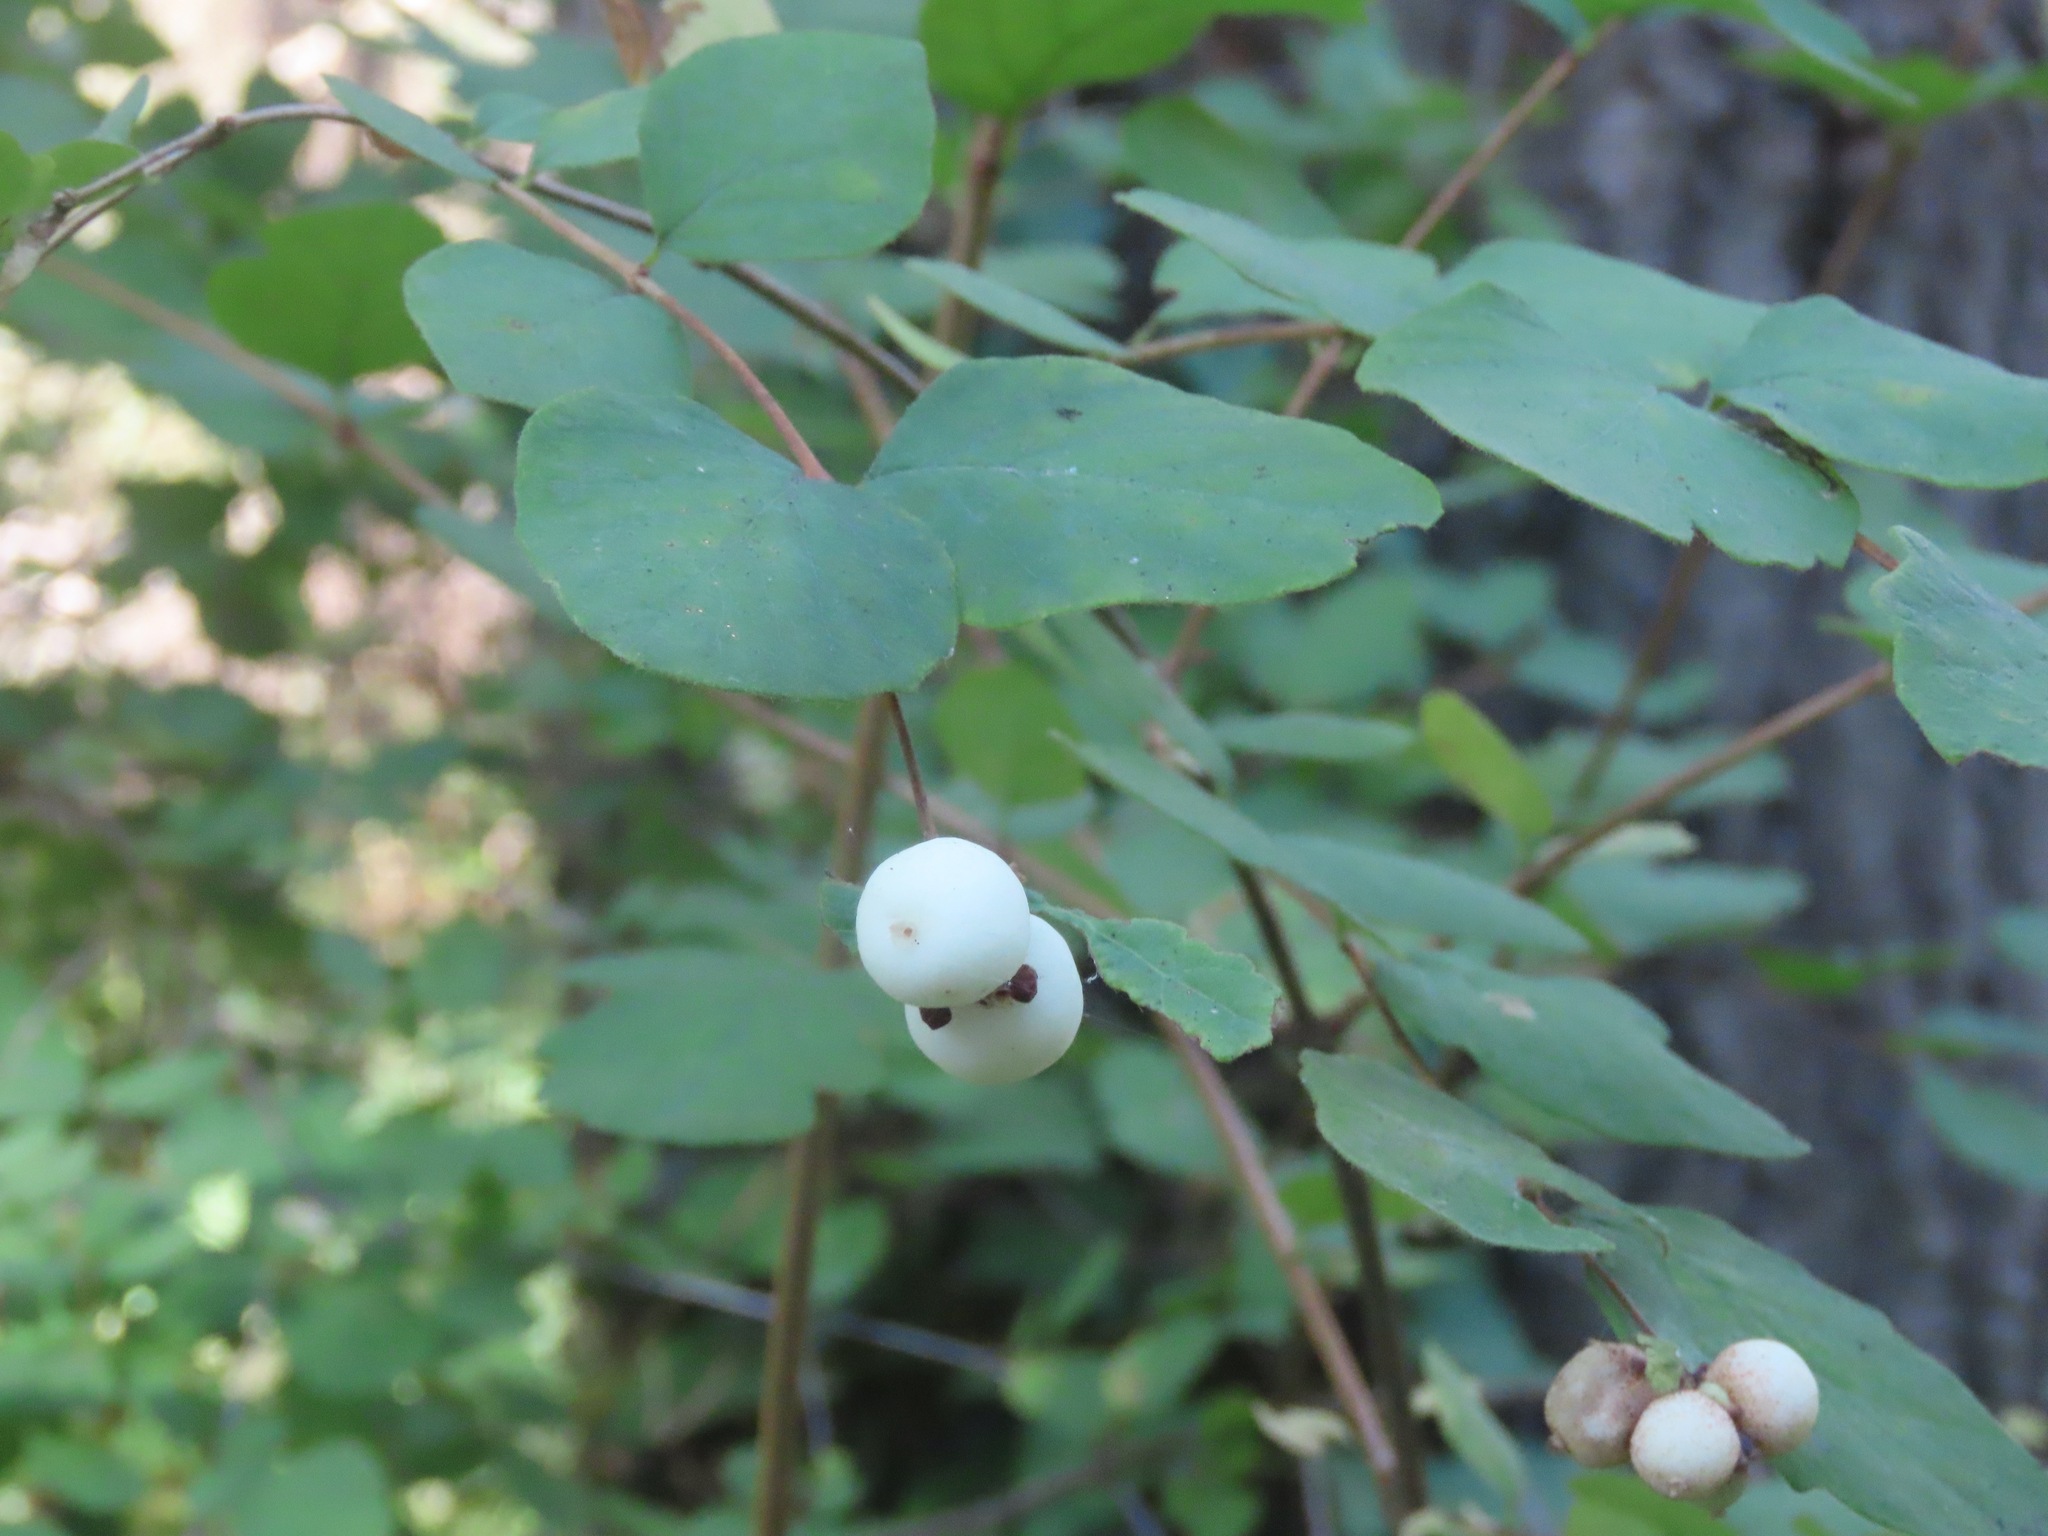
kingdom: Plantae
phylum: Tracheophyta
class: Magnoliopsida
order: Dipsacales
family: Caprifoliaceae
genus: Symphoricarpos
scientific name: Symphoricarpos albus
